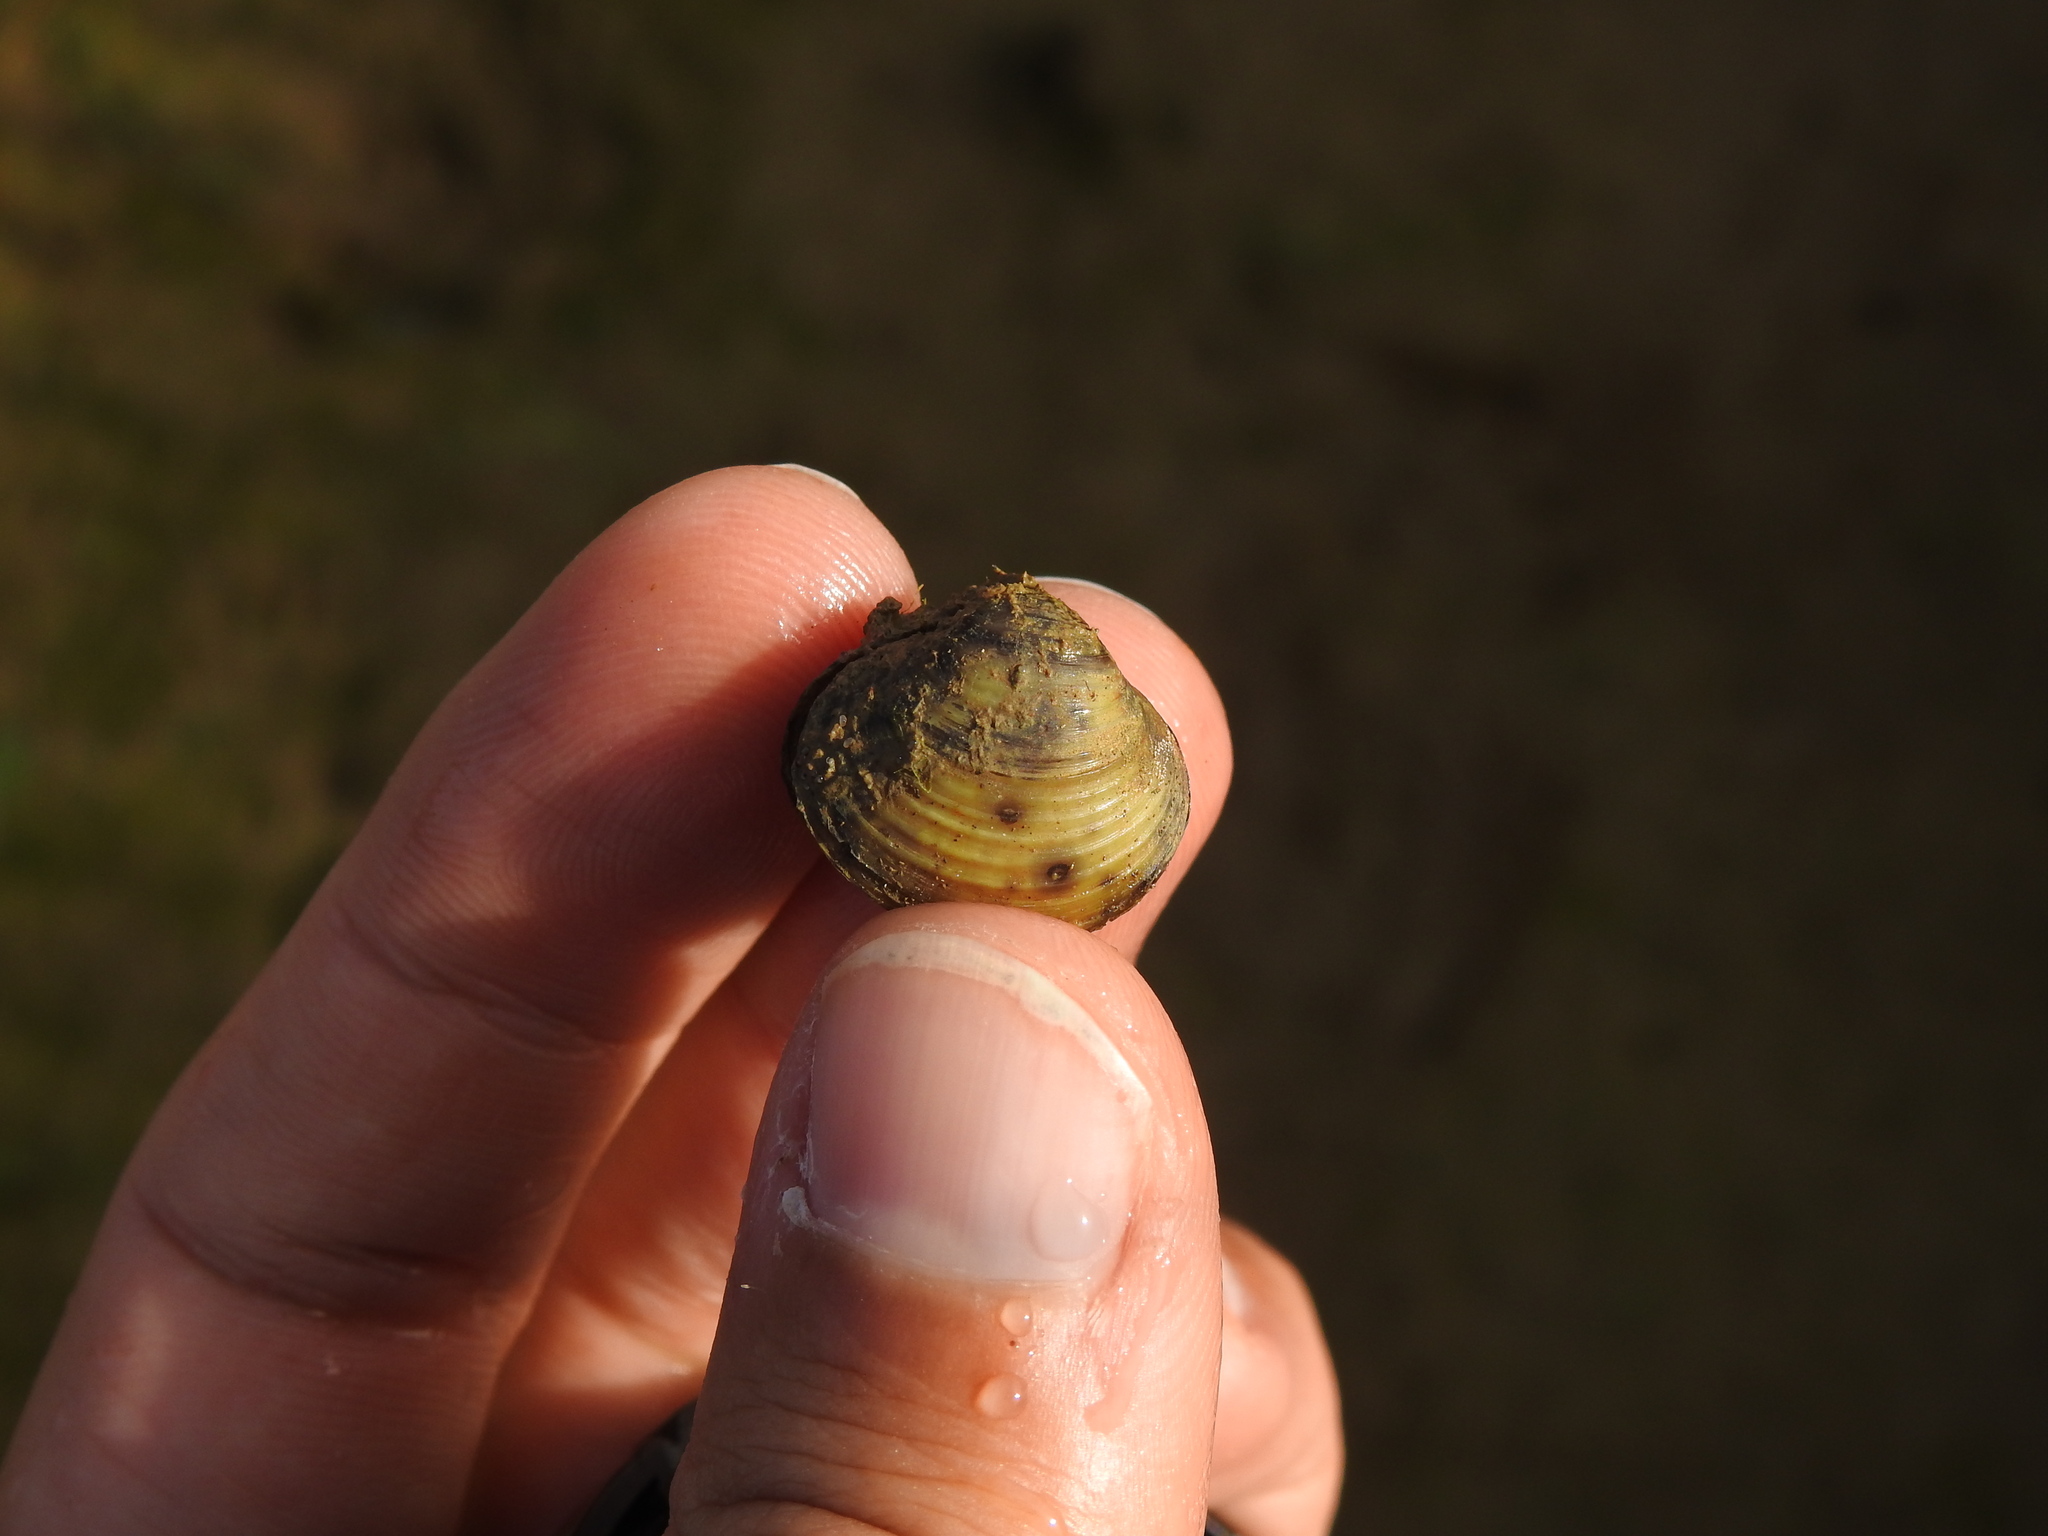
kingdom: Animalia
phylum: Mollusca
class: Bivalvia
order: Venerida
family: Cyrenidae
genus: Corbicula
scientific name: Corbicula fluminea
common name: Asian clam
